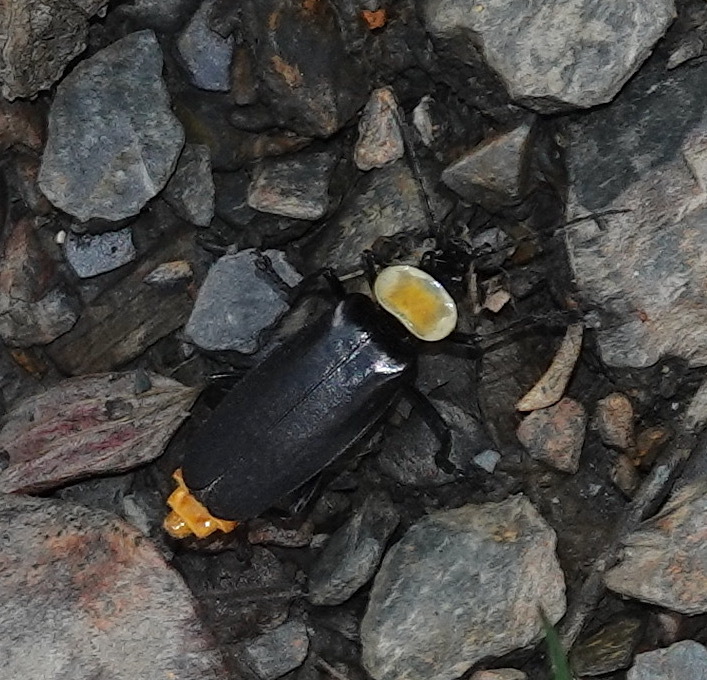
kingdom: Animalia
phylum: Arthropoda
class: Insecta
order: Coleoptera
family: Cantharidae
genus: Chauliognathus
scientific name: Chauliognathus
